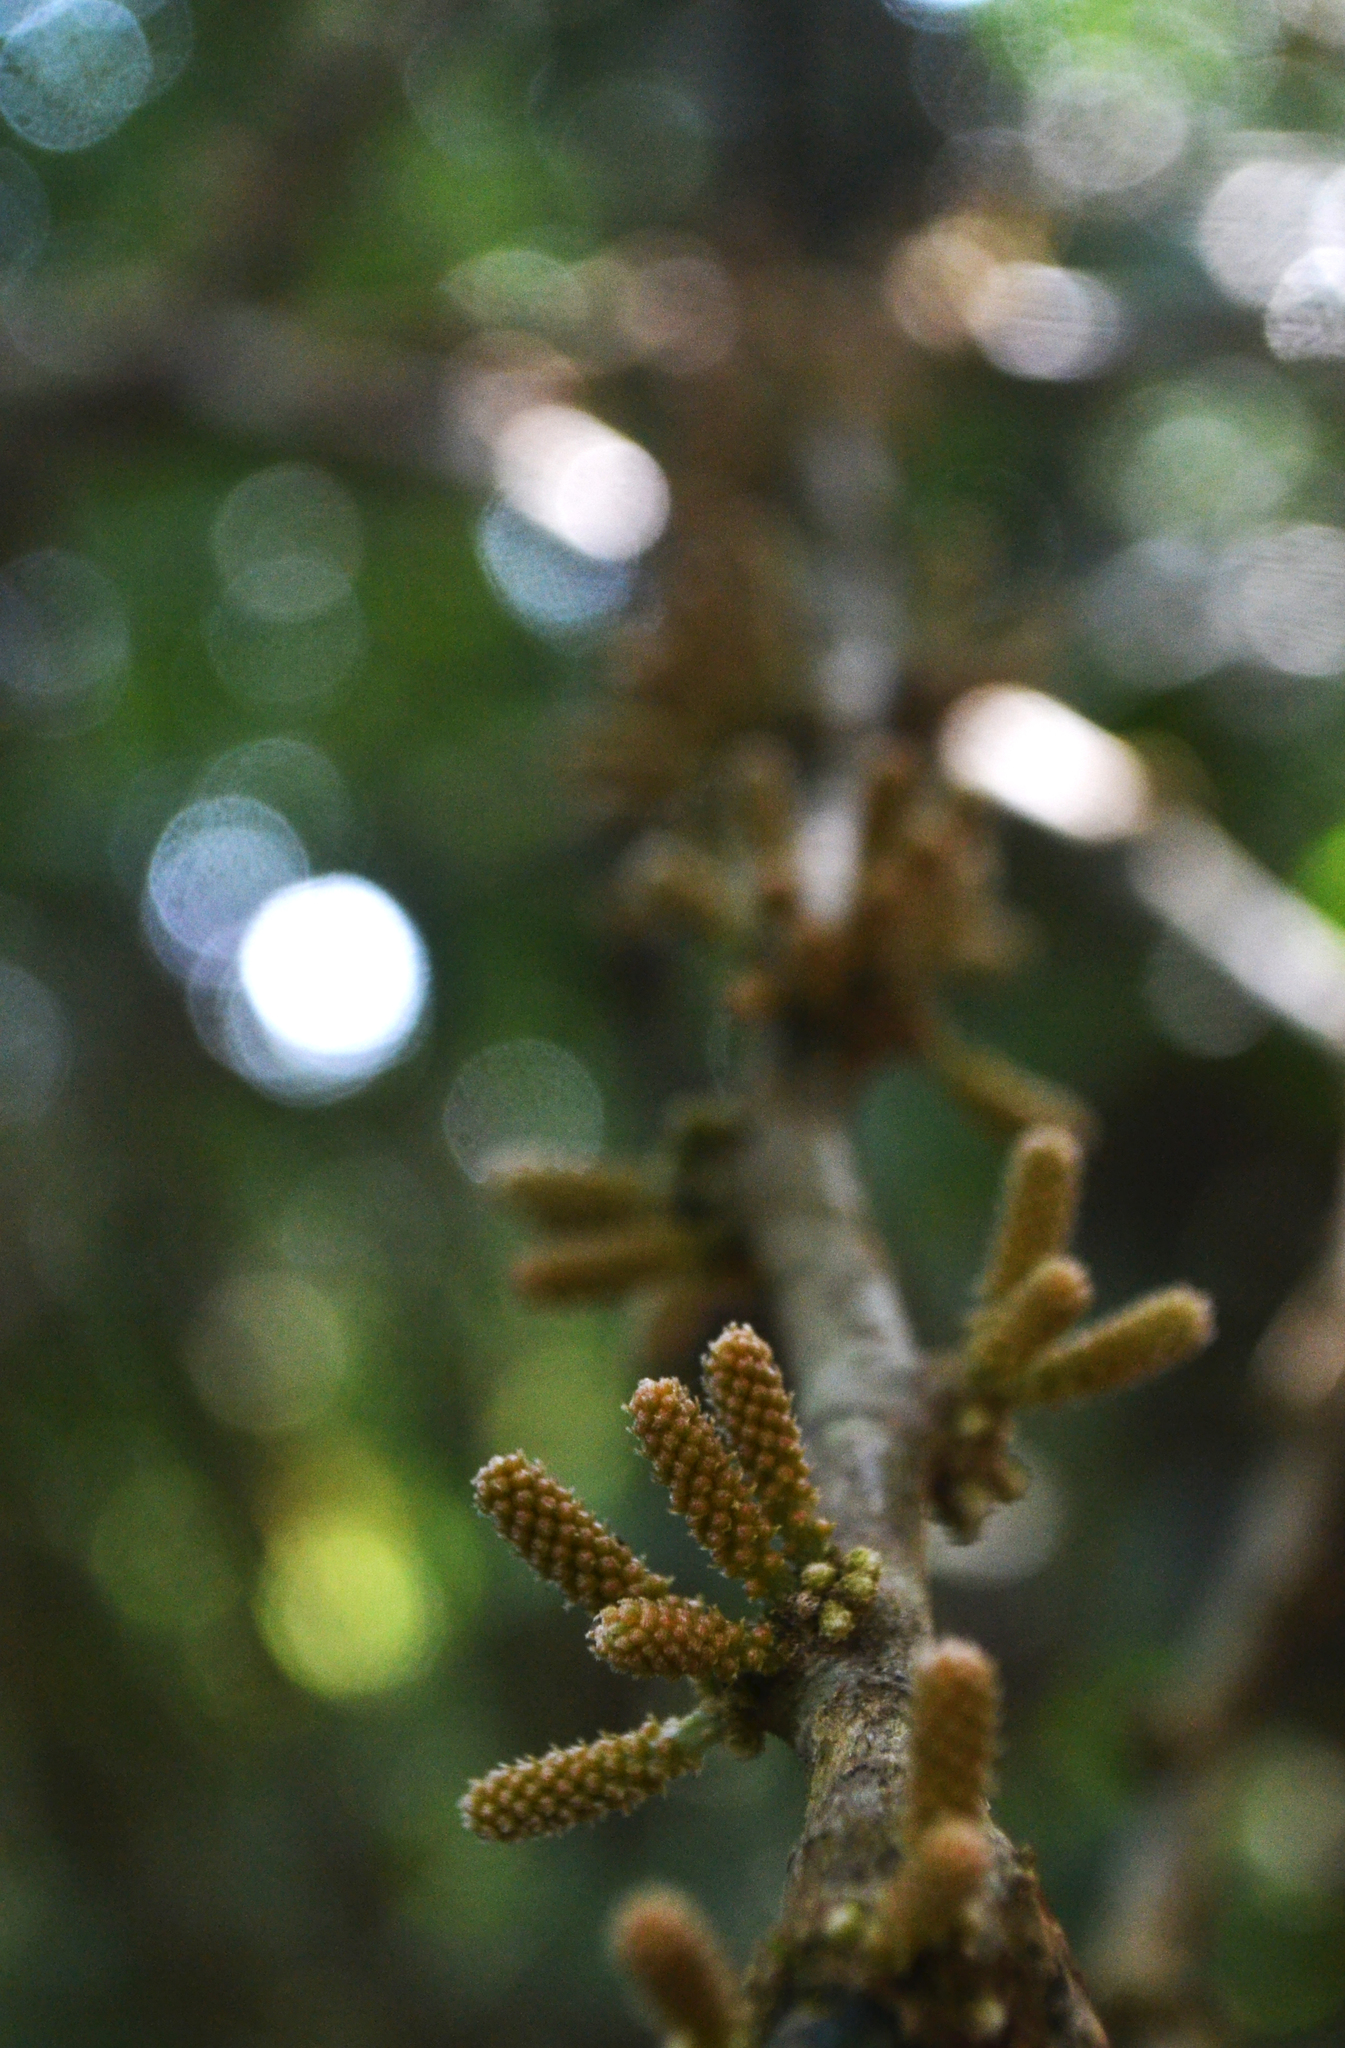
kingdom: Plantae
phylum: Tracheophyta
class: Magnoliopsida
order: Santalales
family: Cervantesiaceae
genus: Scleropyrum
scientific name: Scleropyrum pentandrum
